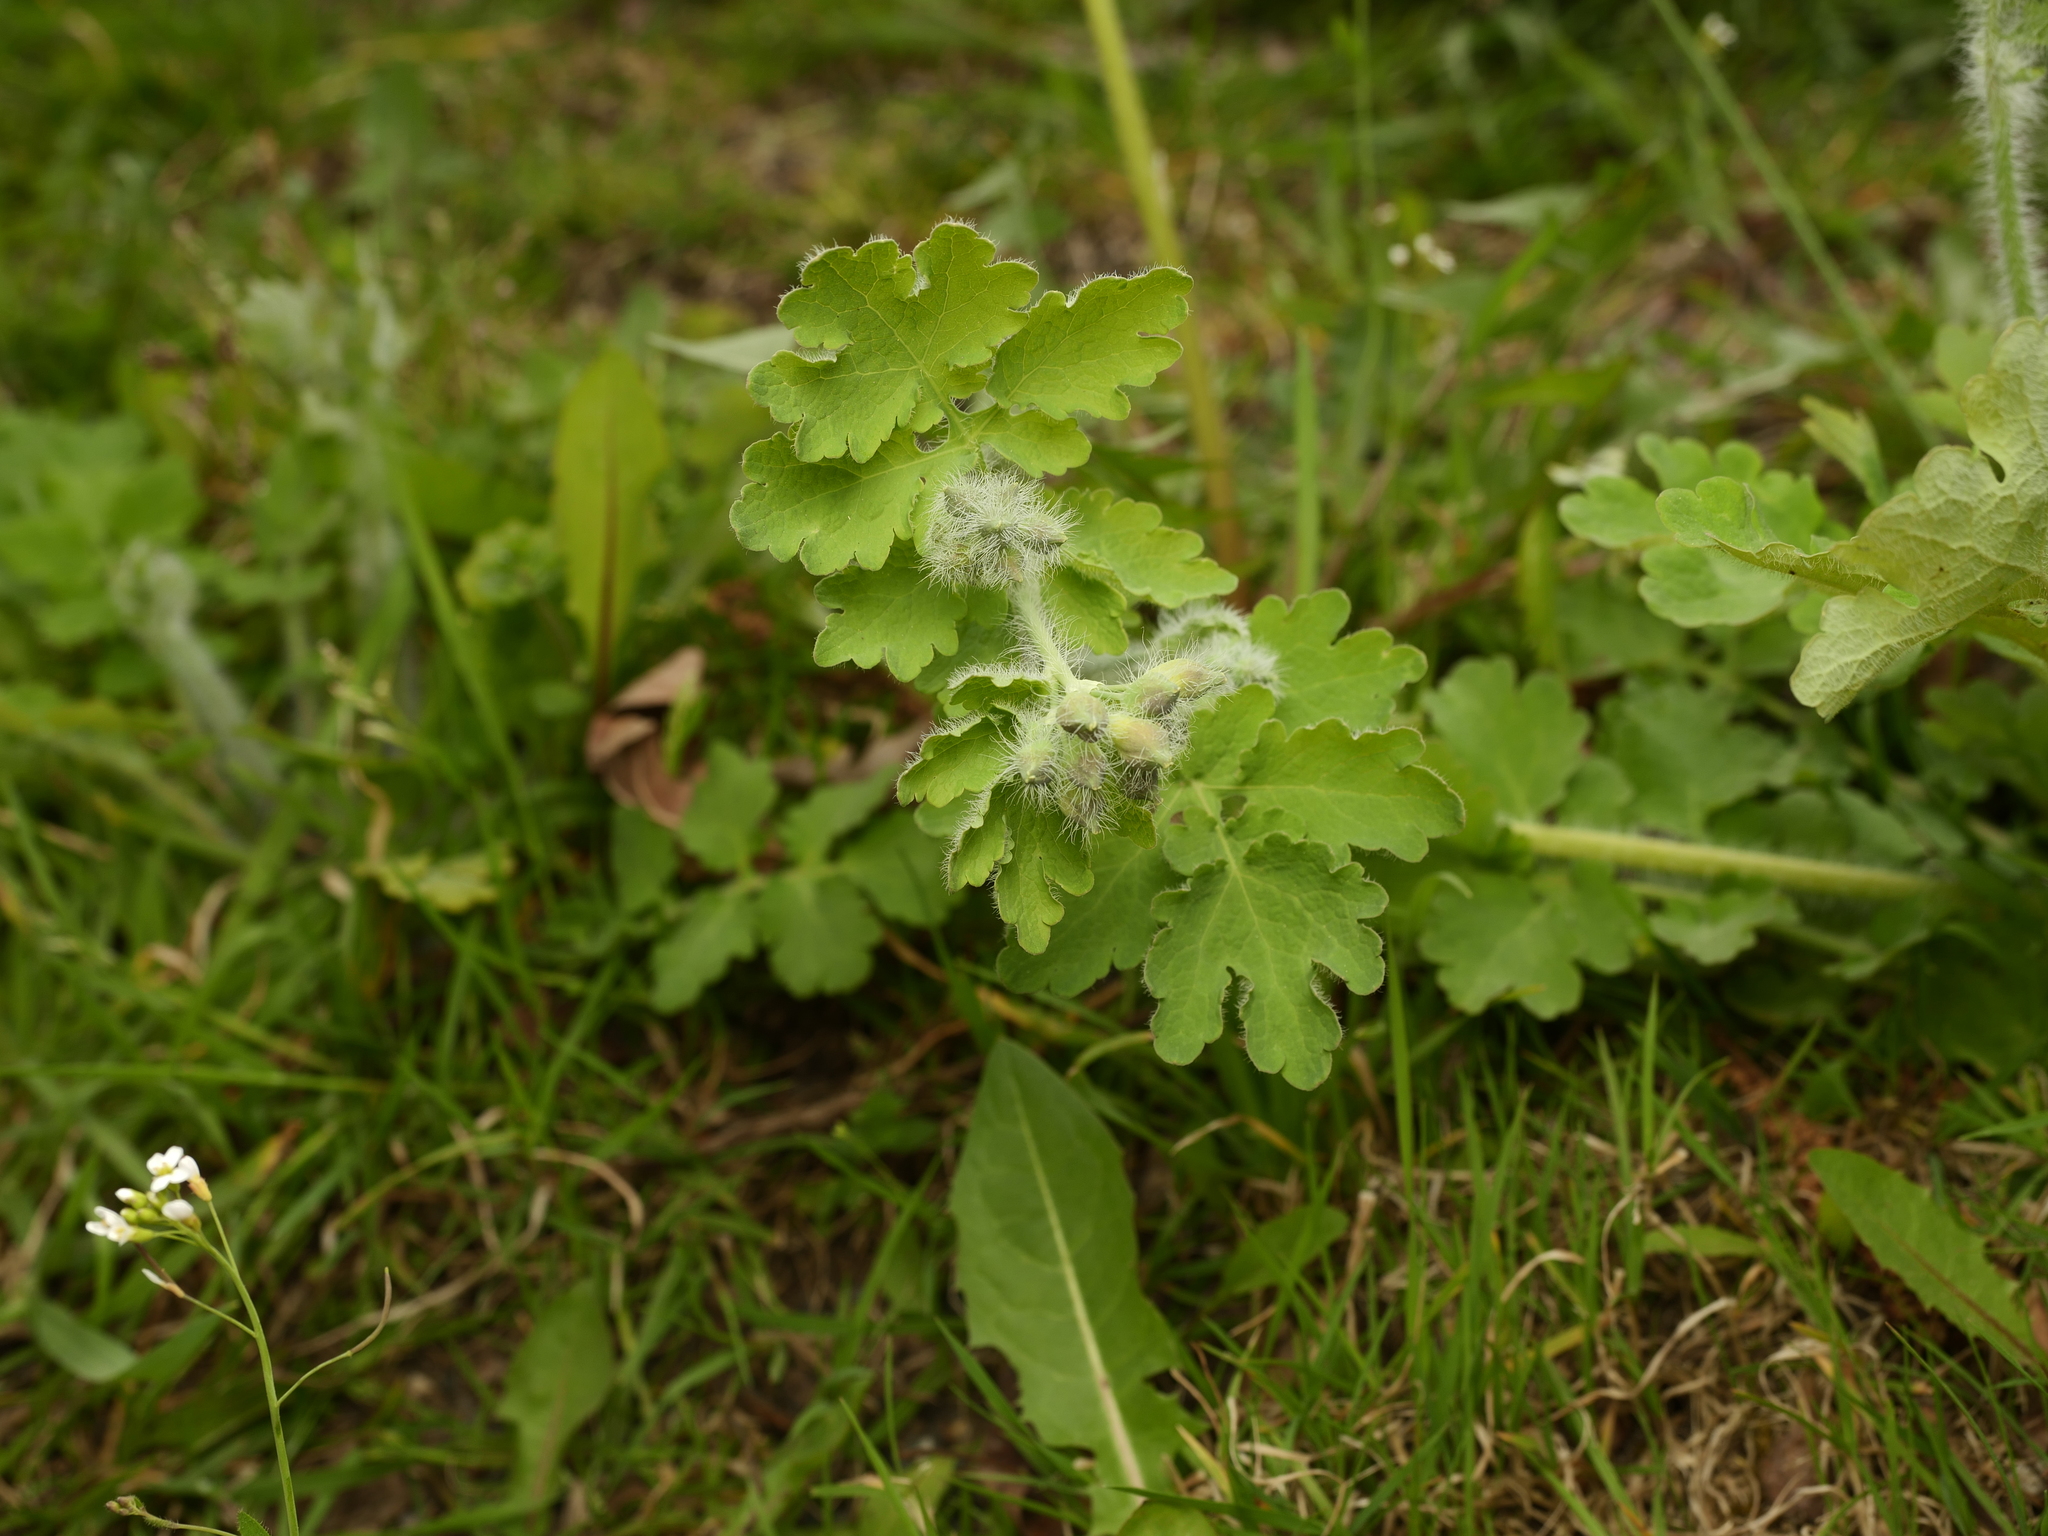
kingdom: Plantae
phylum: Tracheophyta
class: Magnoliopsida
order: Ranunculales
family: Papaveraceae
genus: Chelidonium
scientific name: Chelidonium majus
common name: Greater celandine
